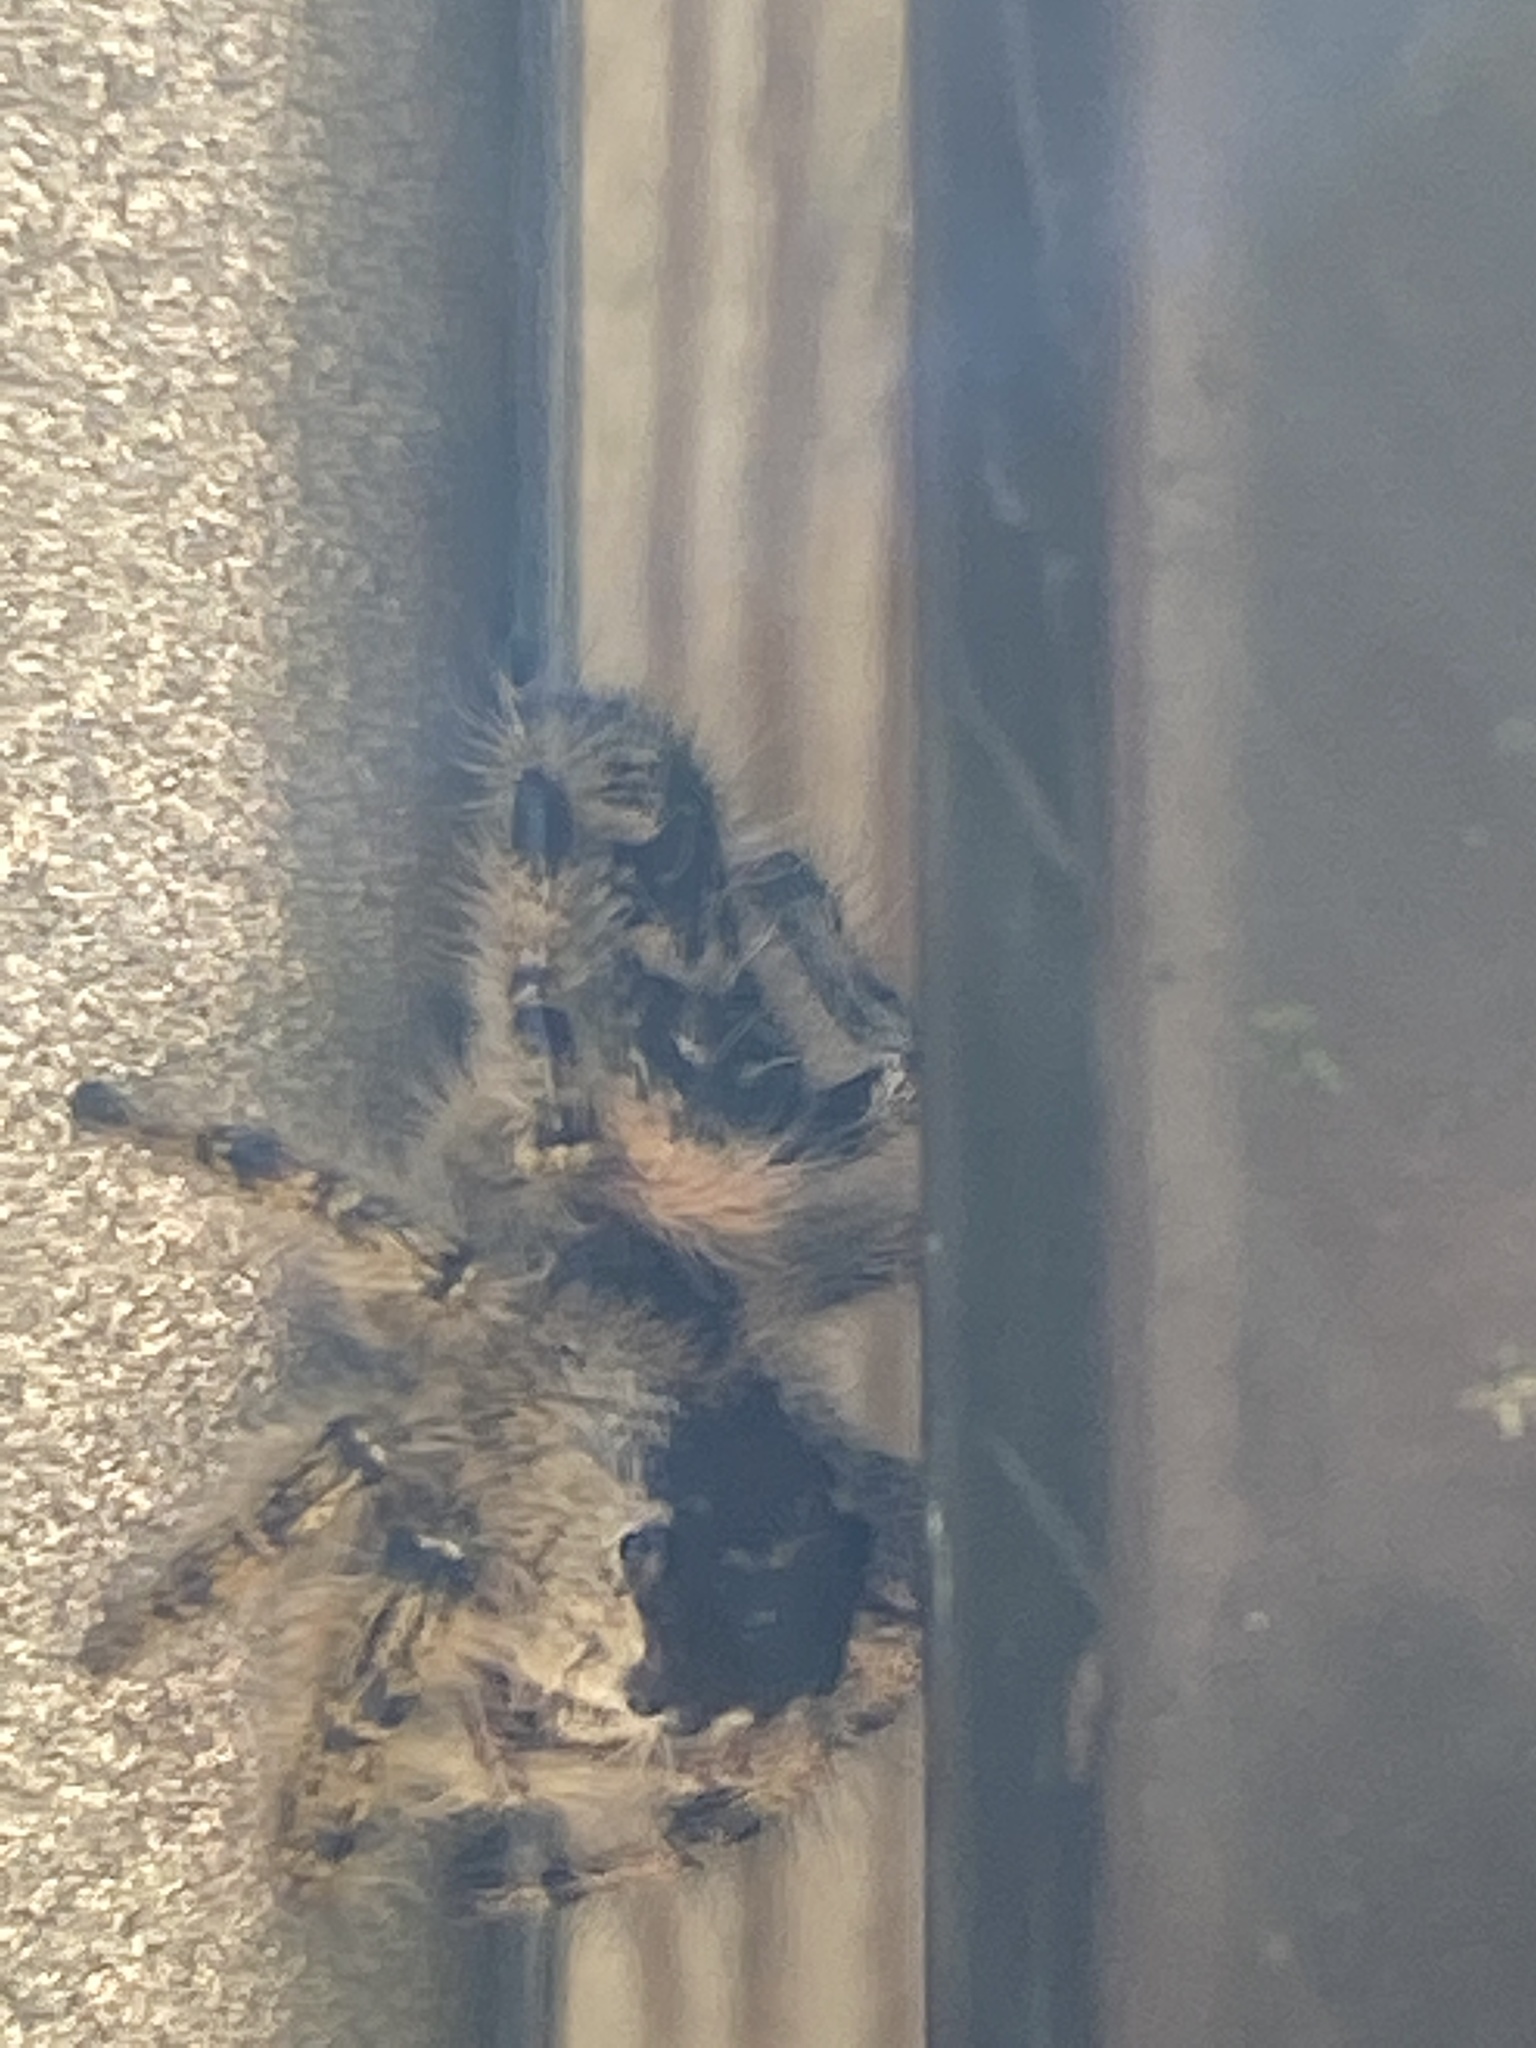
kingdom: Animalia
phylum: Arthropoda
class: Arachnida
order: Araneae
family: Salticidae
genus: Phidippus
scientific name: Phidippus otiosus
